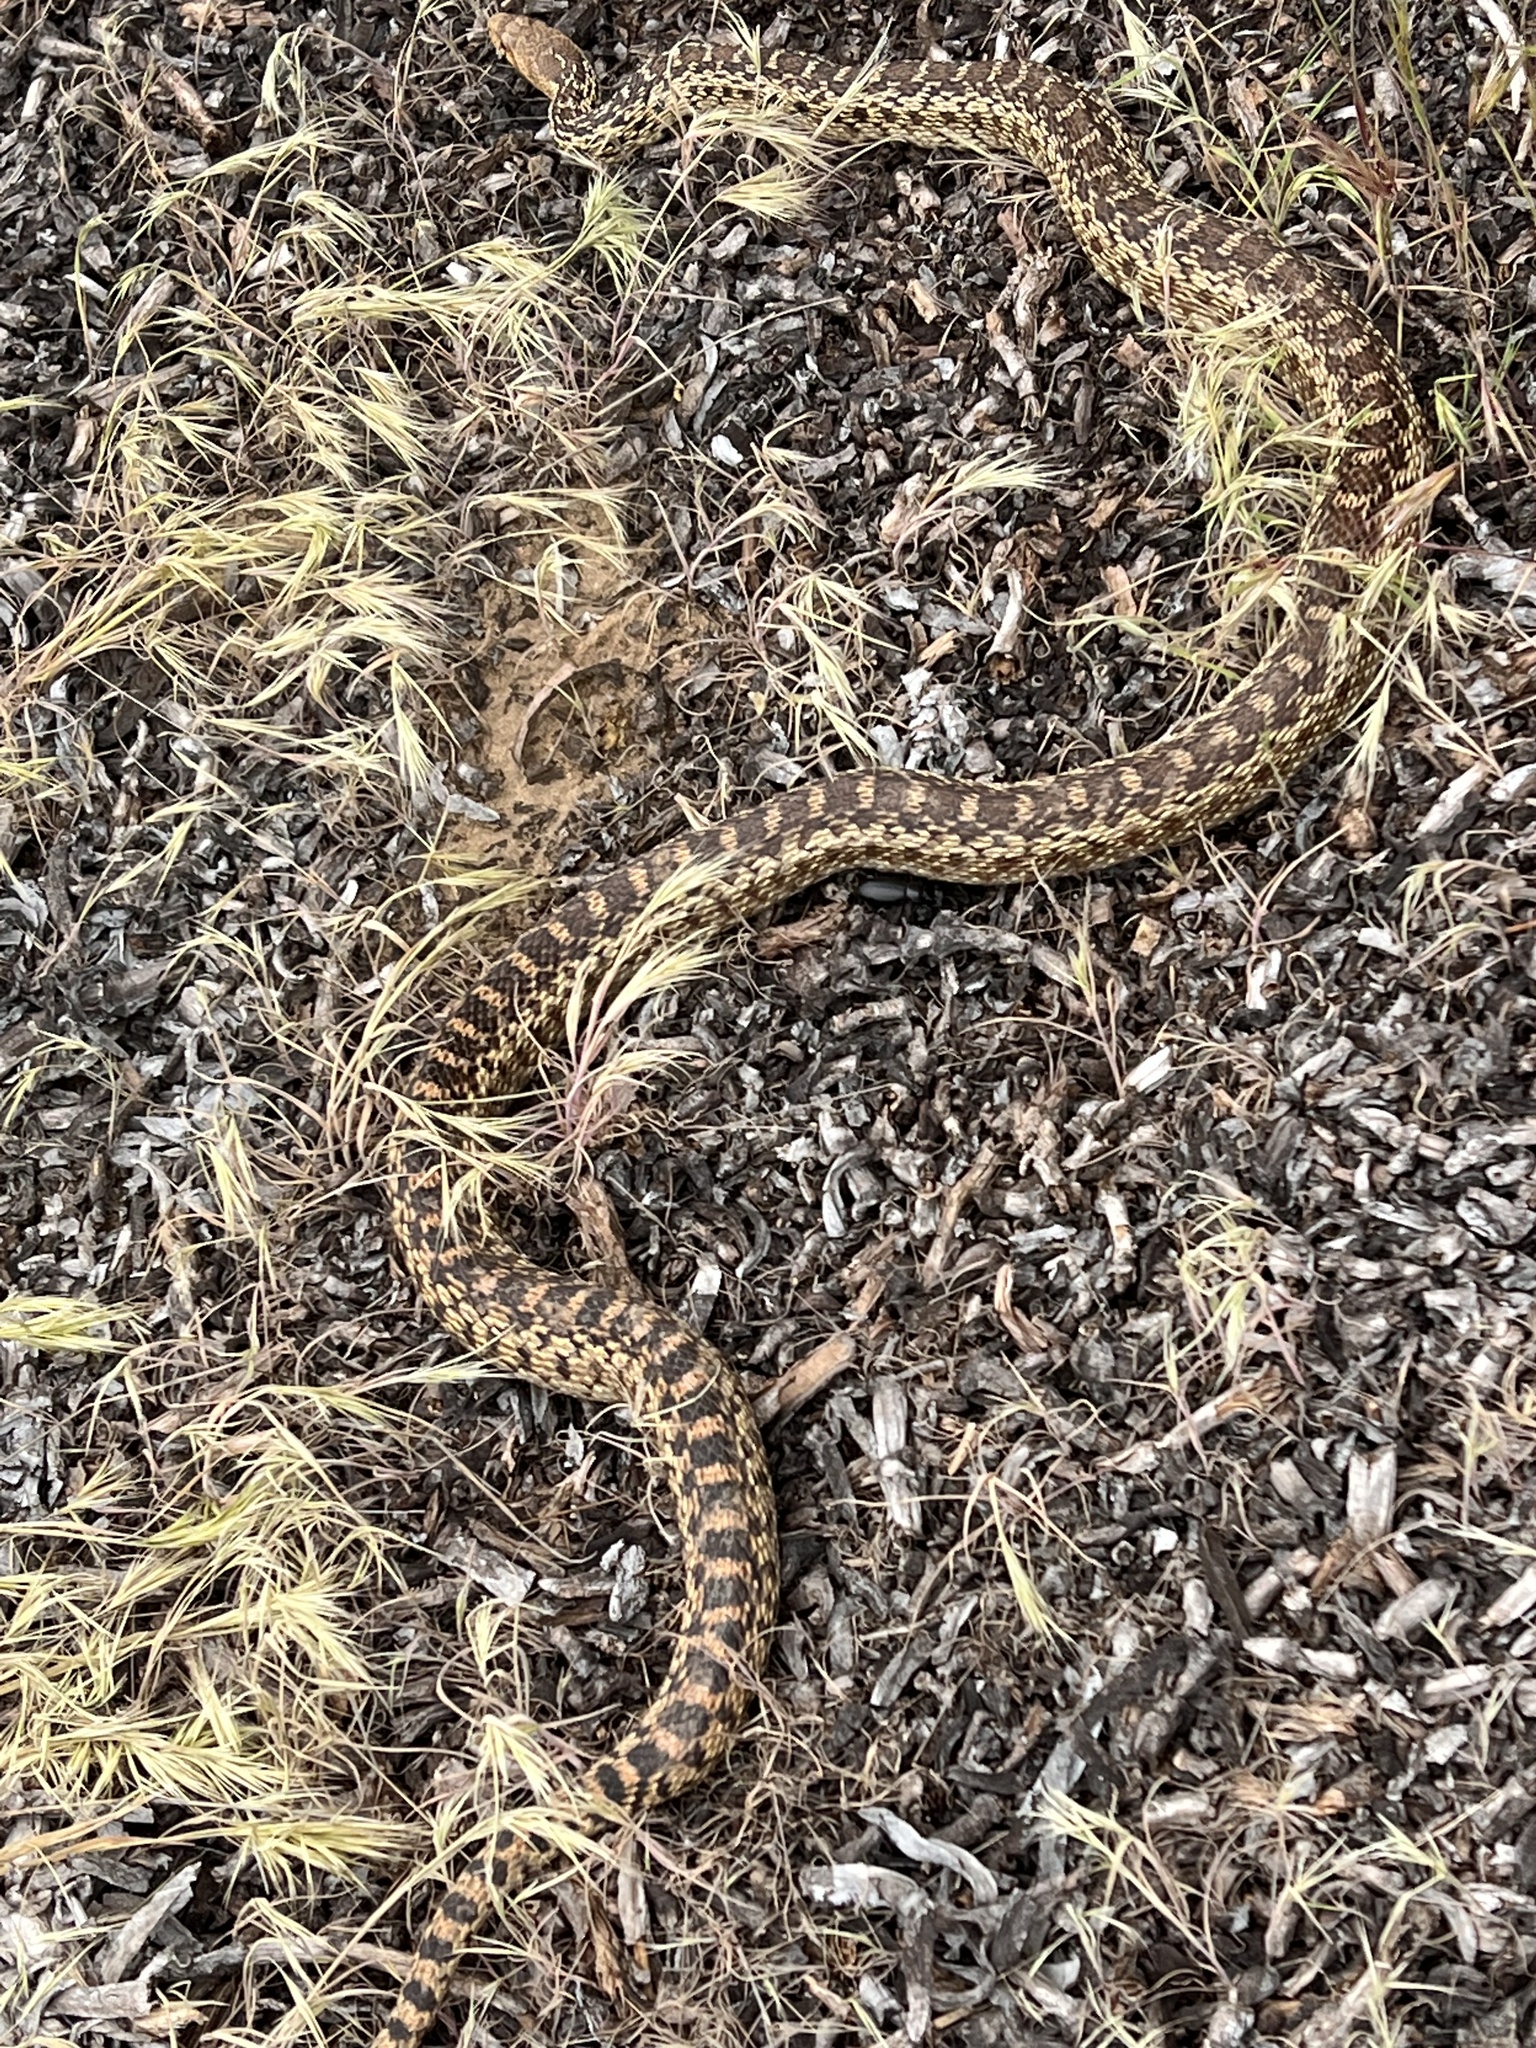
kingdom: Animalia
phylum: Chordata
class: Squamata
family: Colubridae
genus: Pituophis
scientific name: Pituophis catenifer
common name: Gopher snake
